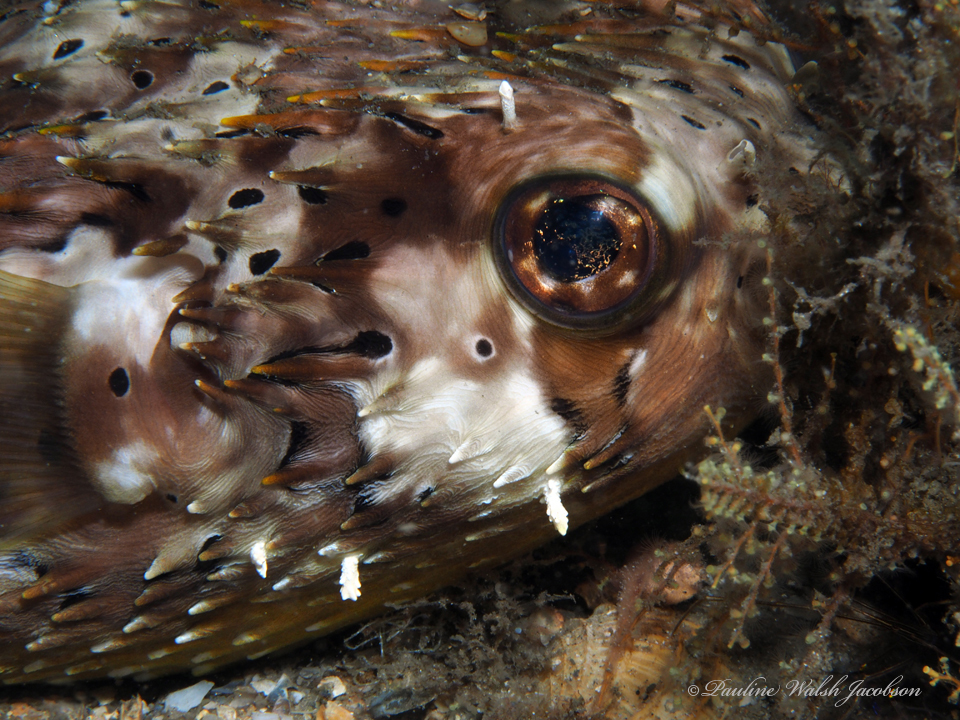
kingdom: Animalia
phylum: Chordata
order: Tetraodontiformes
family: Diodontidae
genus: Diodon
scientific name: Diodon holocanthus
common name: Balloonfish
